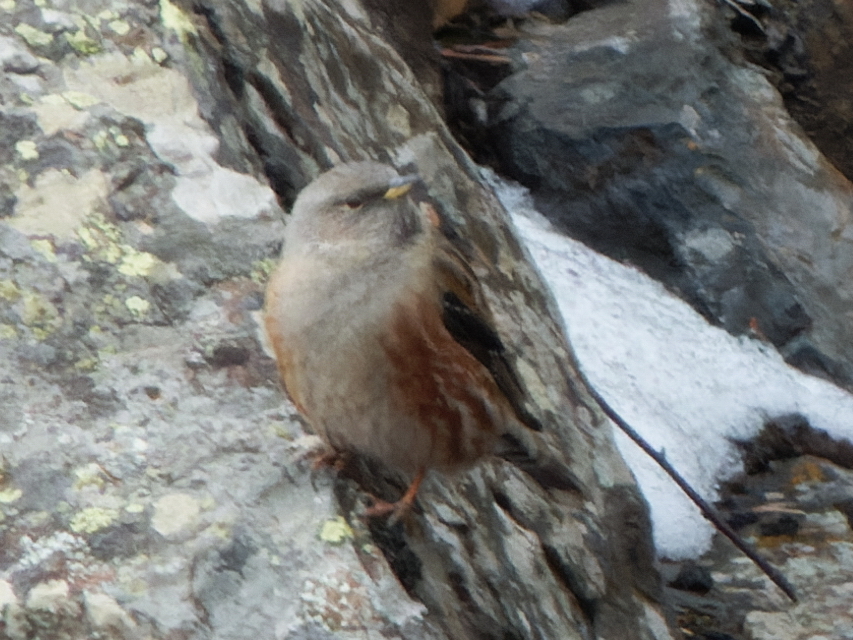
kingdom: Animalia
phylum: Chordata
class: Aves
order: Passeriformes
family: Prunellidae
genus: Prunella
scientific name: Prunella collaris
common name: Alpine accentor
